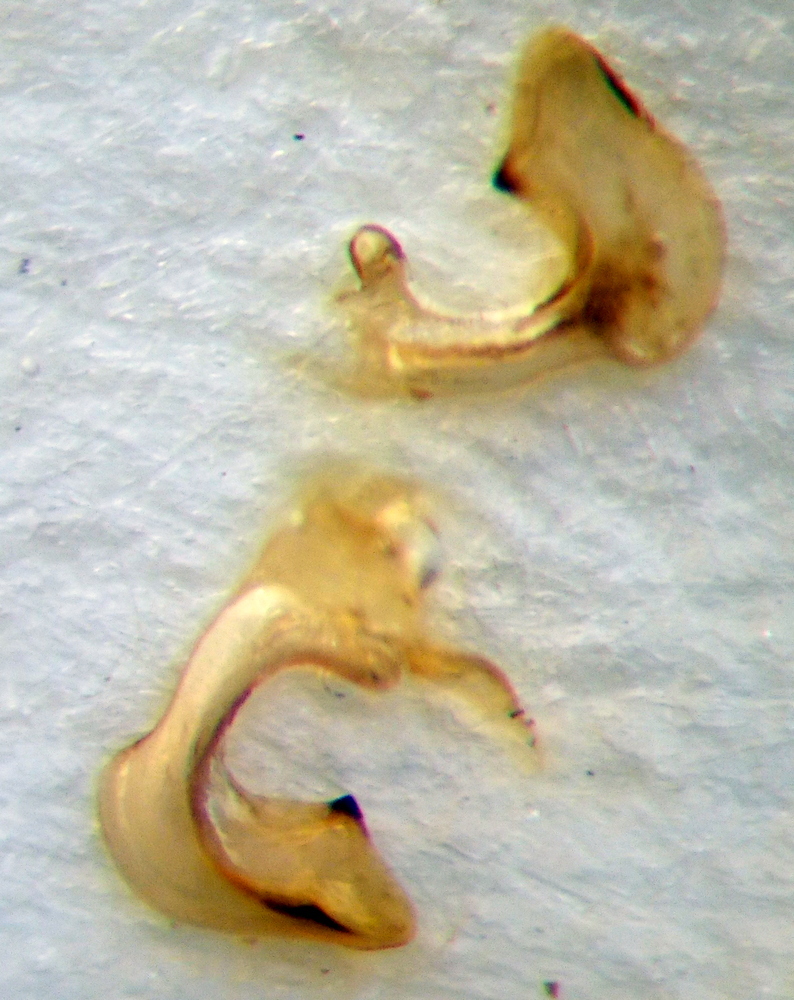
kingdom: Animalia
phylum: Arthropoda
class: Insecta
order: Hemiptera
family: Pentatomidae
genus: Carpocoris
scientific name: Carpocoris mediterraneus
